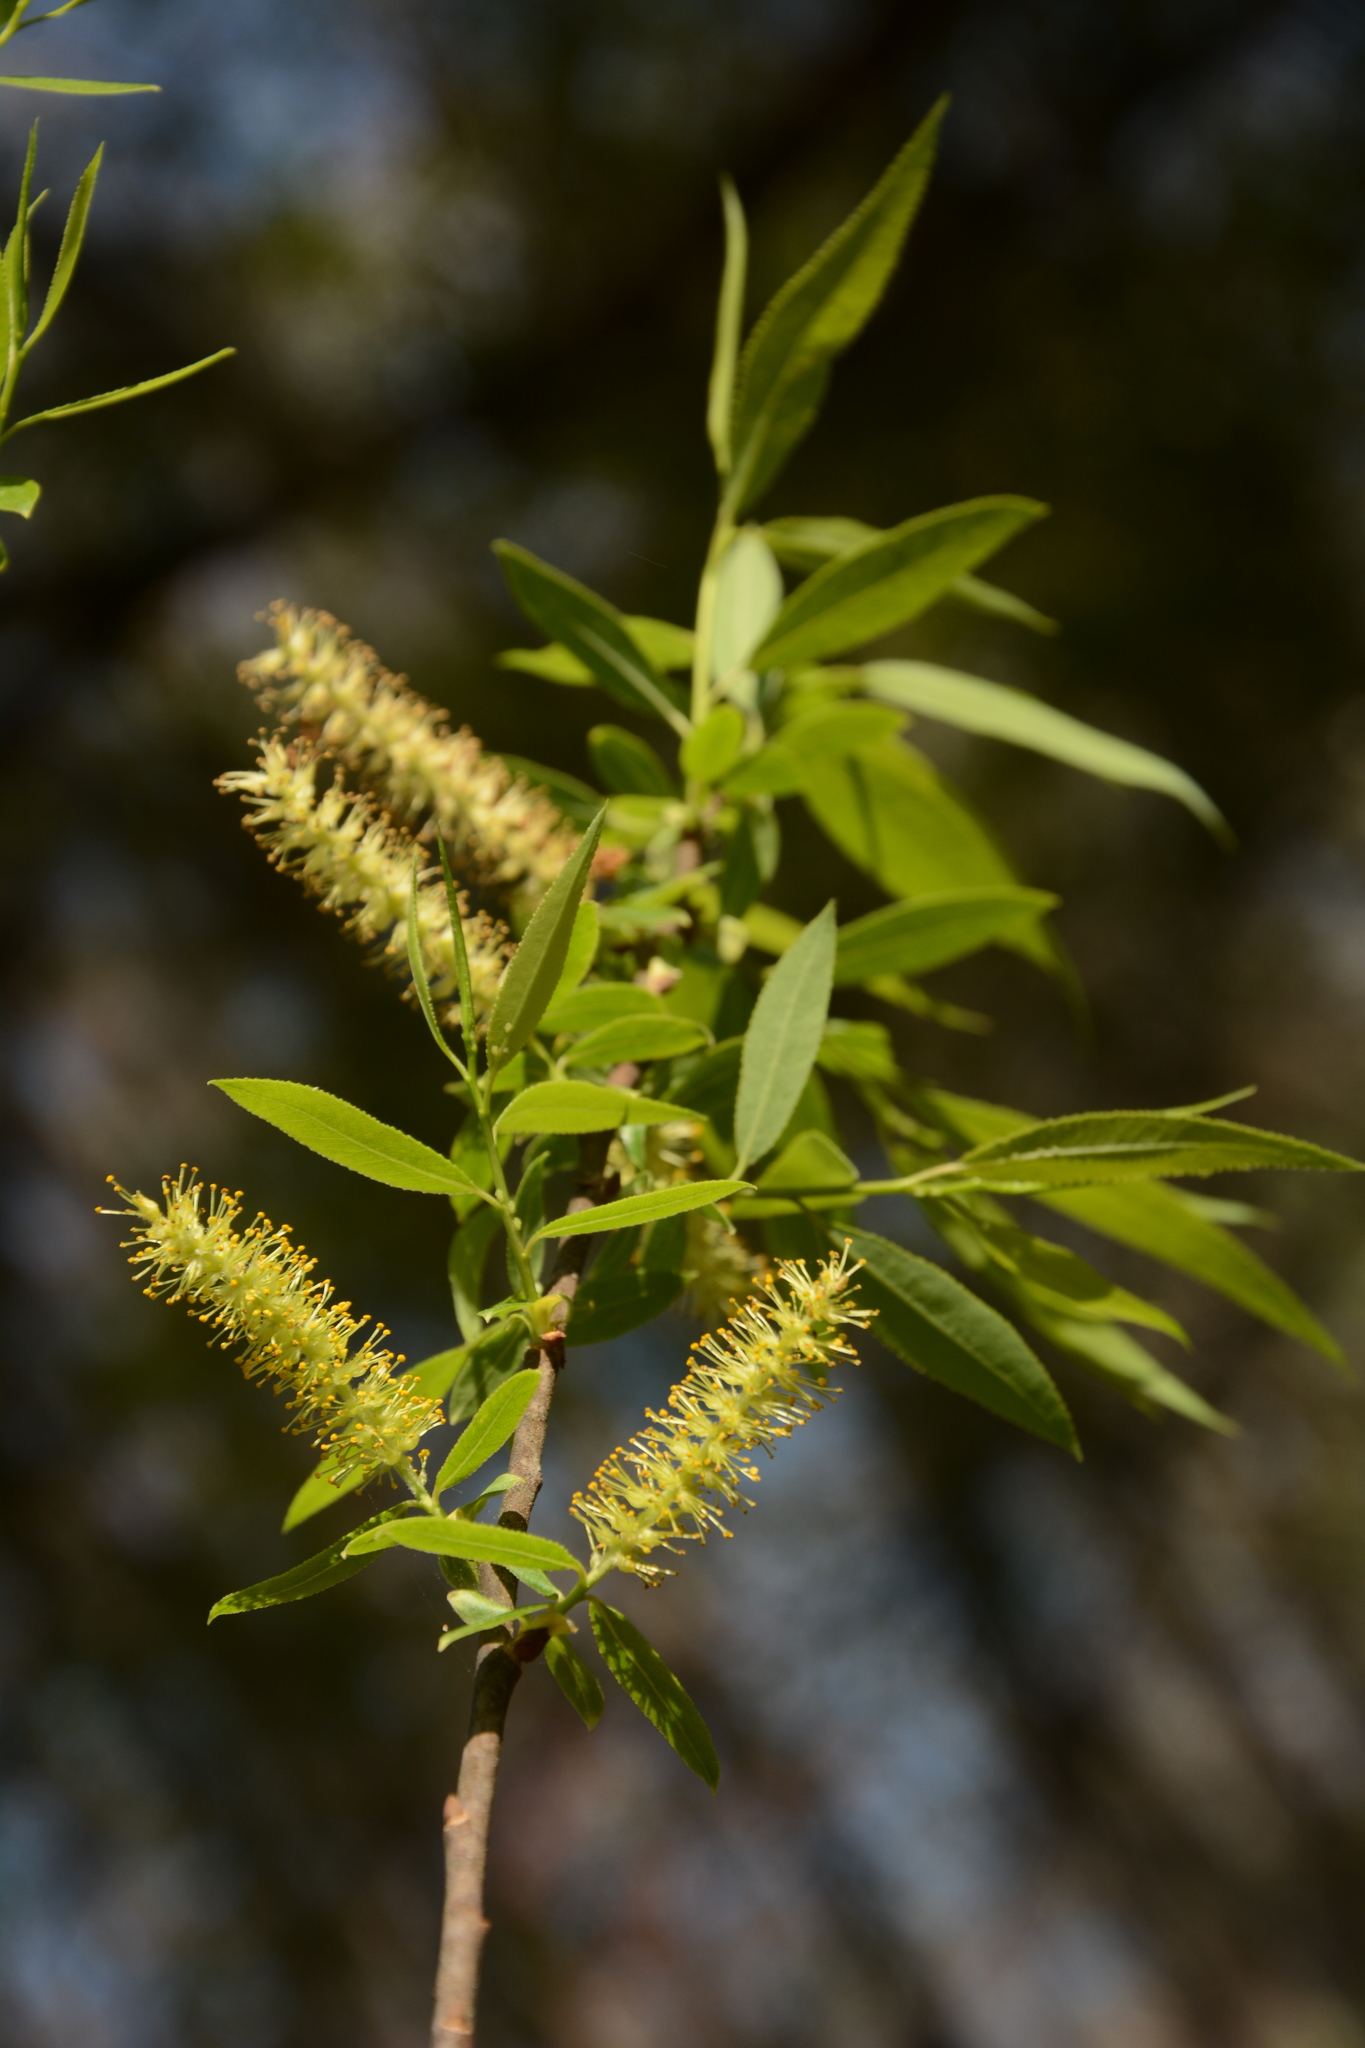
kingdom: Plantae
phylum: Tracheophyta
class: Magnoliopsida
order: Malpighiales
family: Salicaceae
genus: Salix
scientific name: Salix caroliniana
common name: Carolina willow
